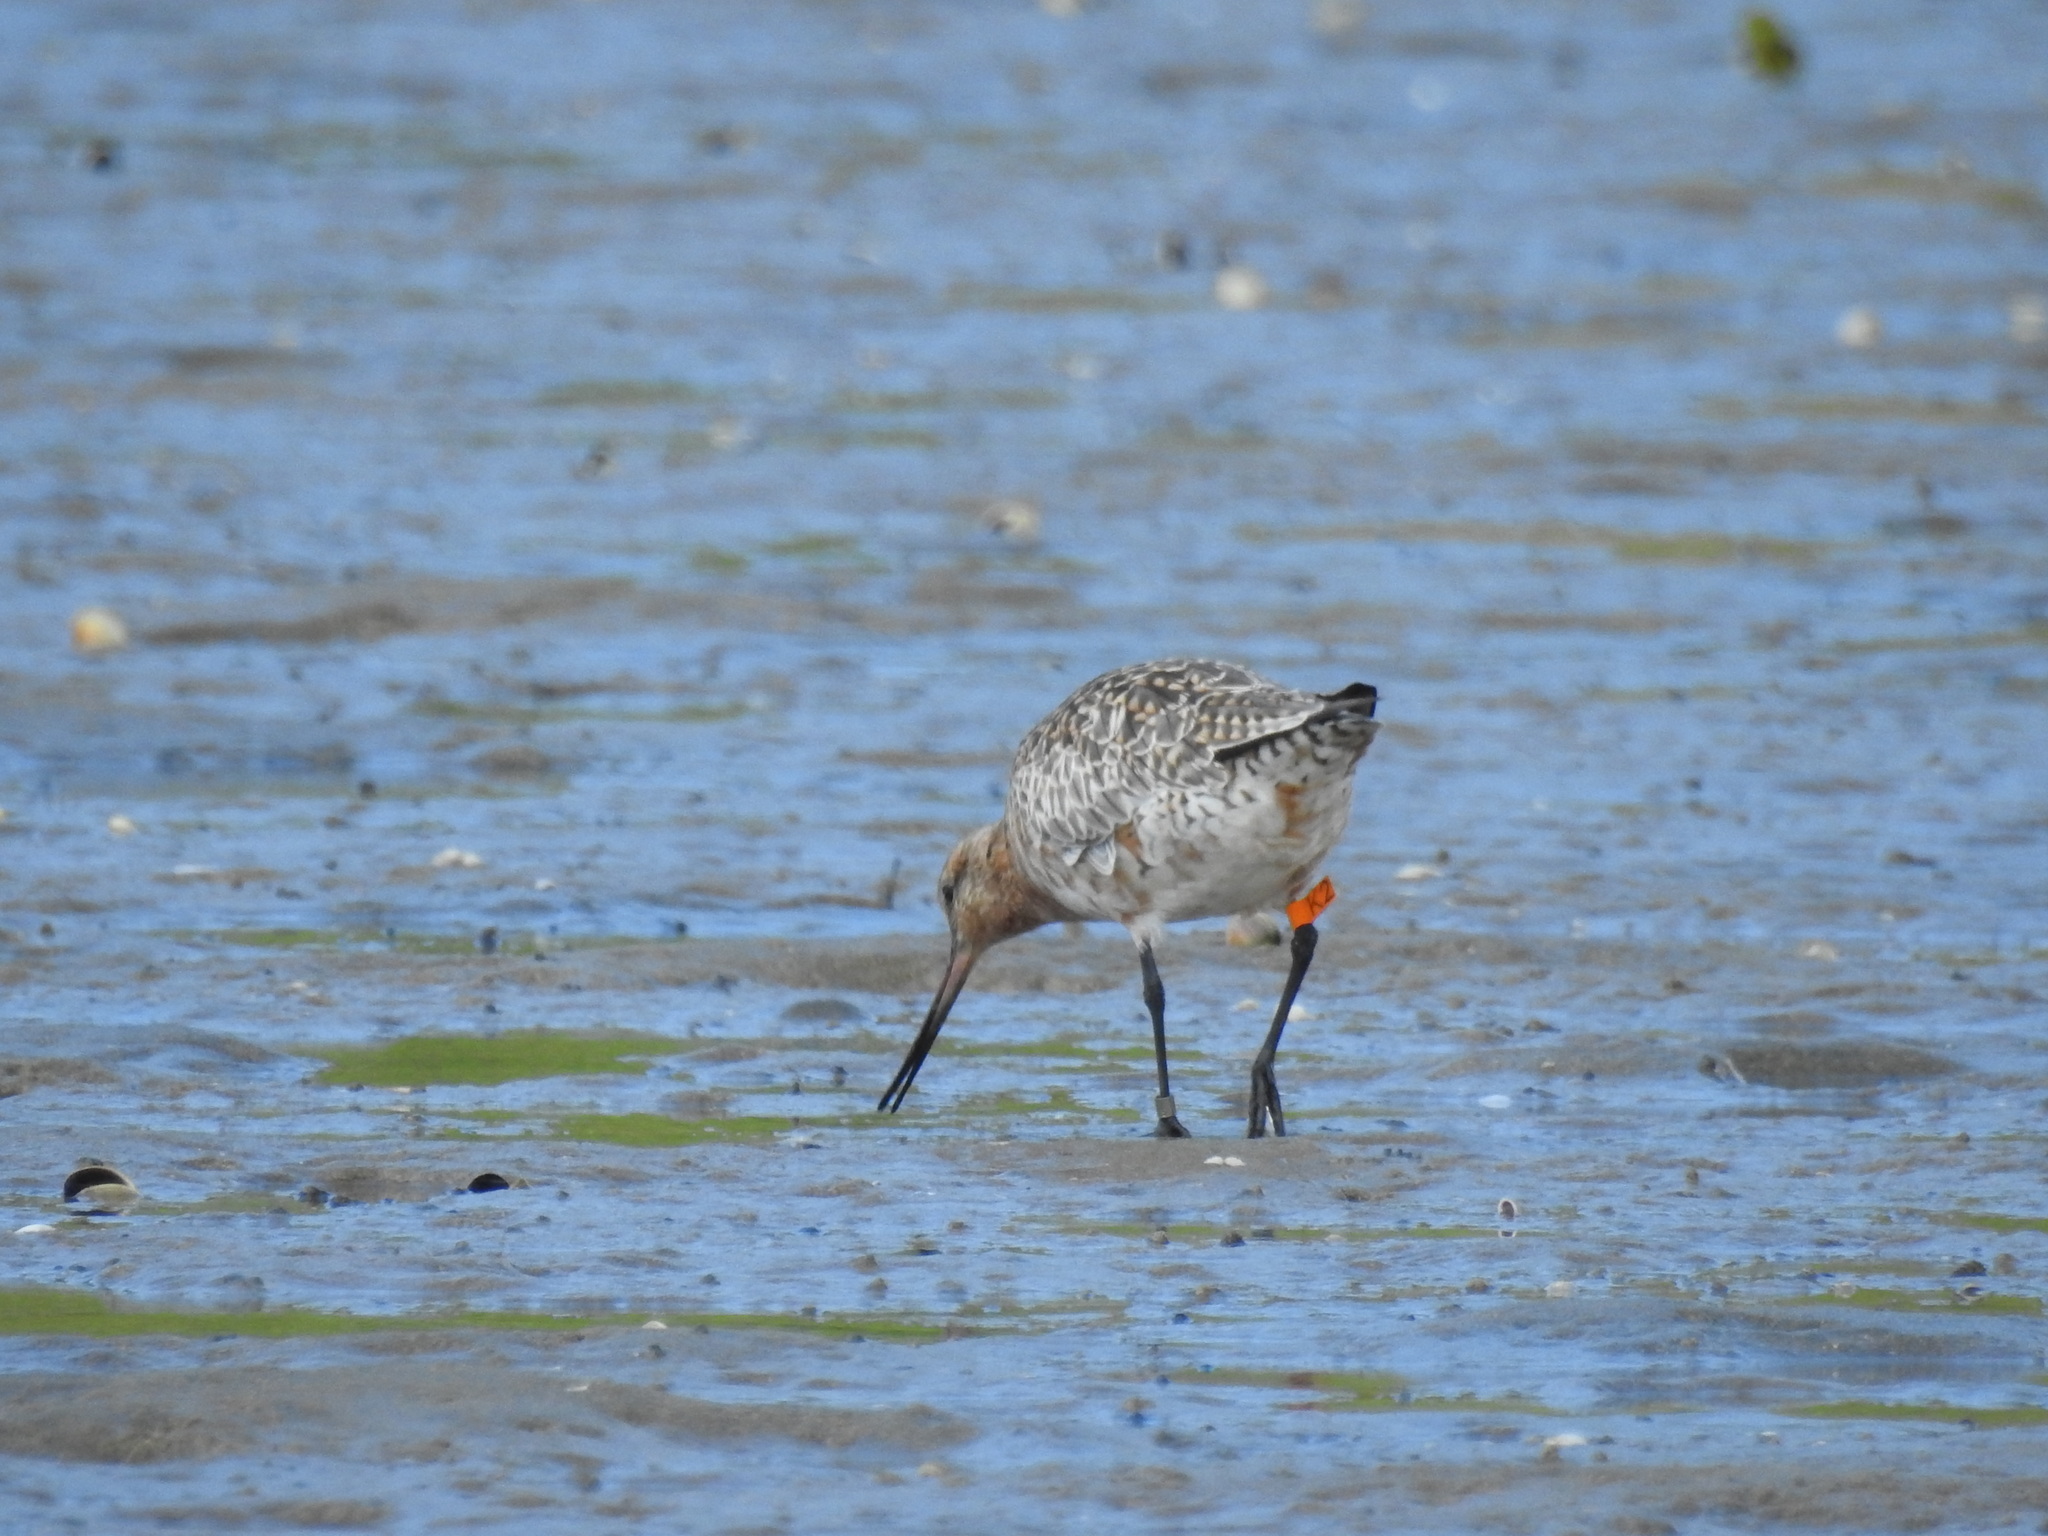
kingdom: Animalia
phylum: Chordata
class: Aves
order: Charadriiformes
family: Scolopacidae
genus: Limosa
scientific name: Limosa lapponica
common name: Bar-tailed godwit
